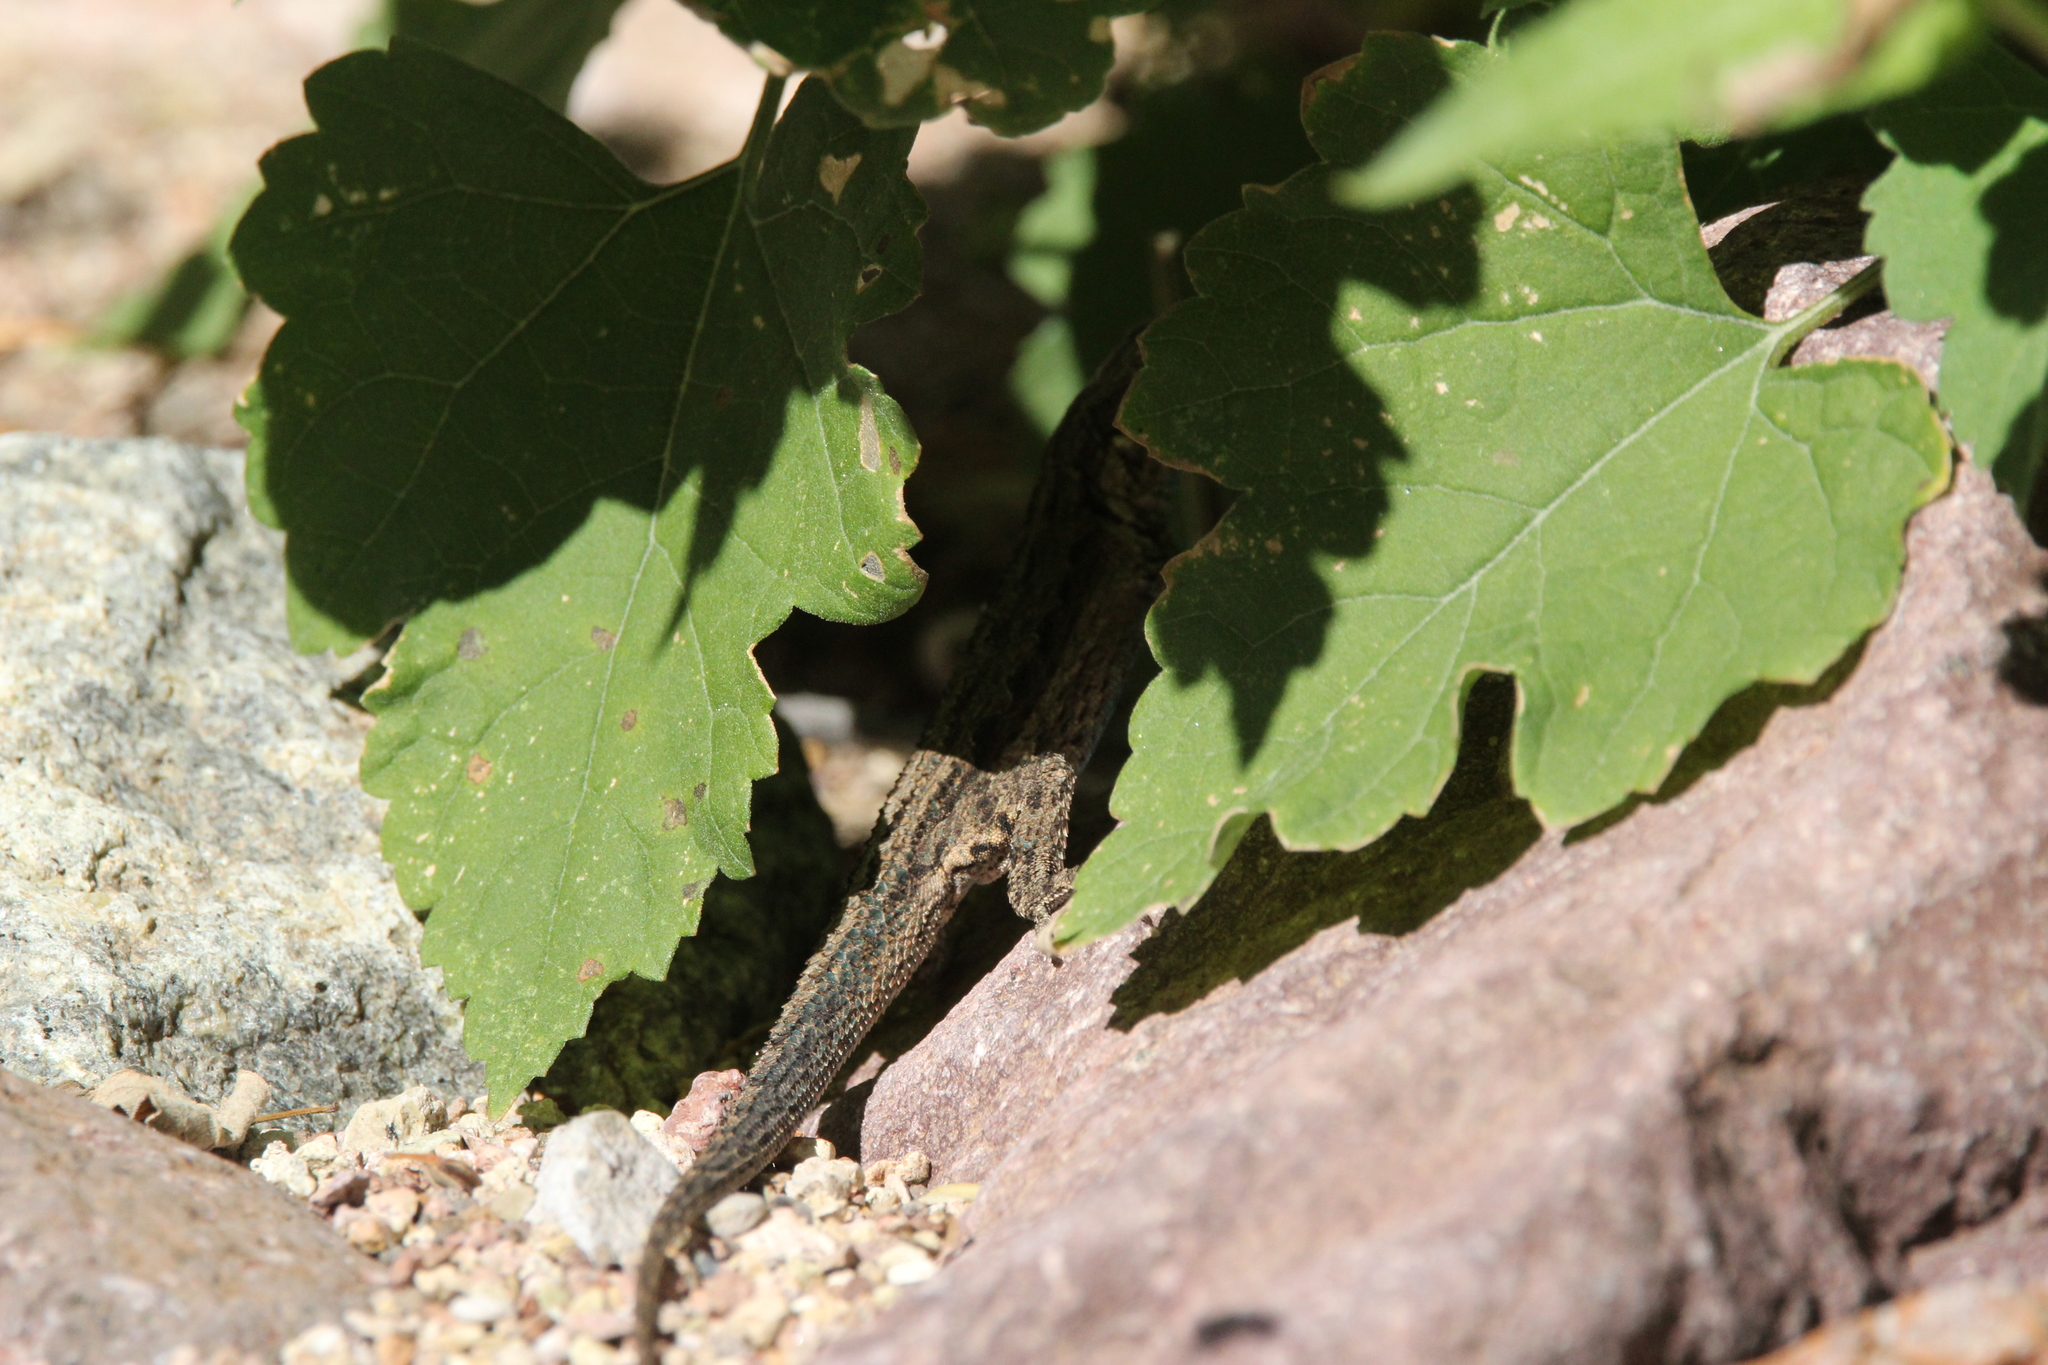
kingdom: Animalia
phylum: Chordata
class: Squamata
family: Phrynosomatidae
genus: Urosaurus
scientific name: Urosaurus ornatus
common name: Ornate tree lizard
